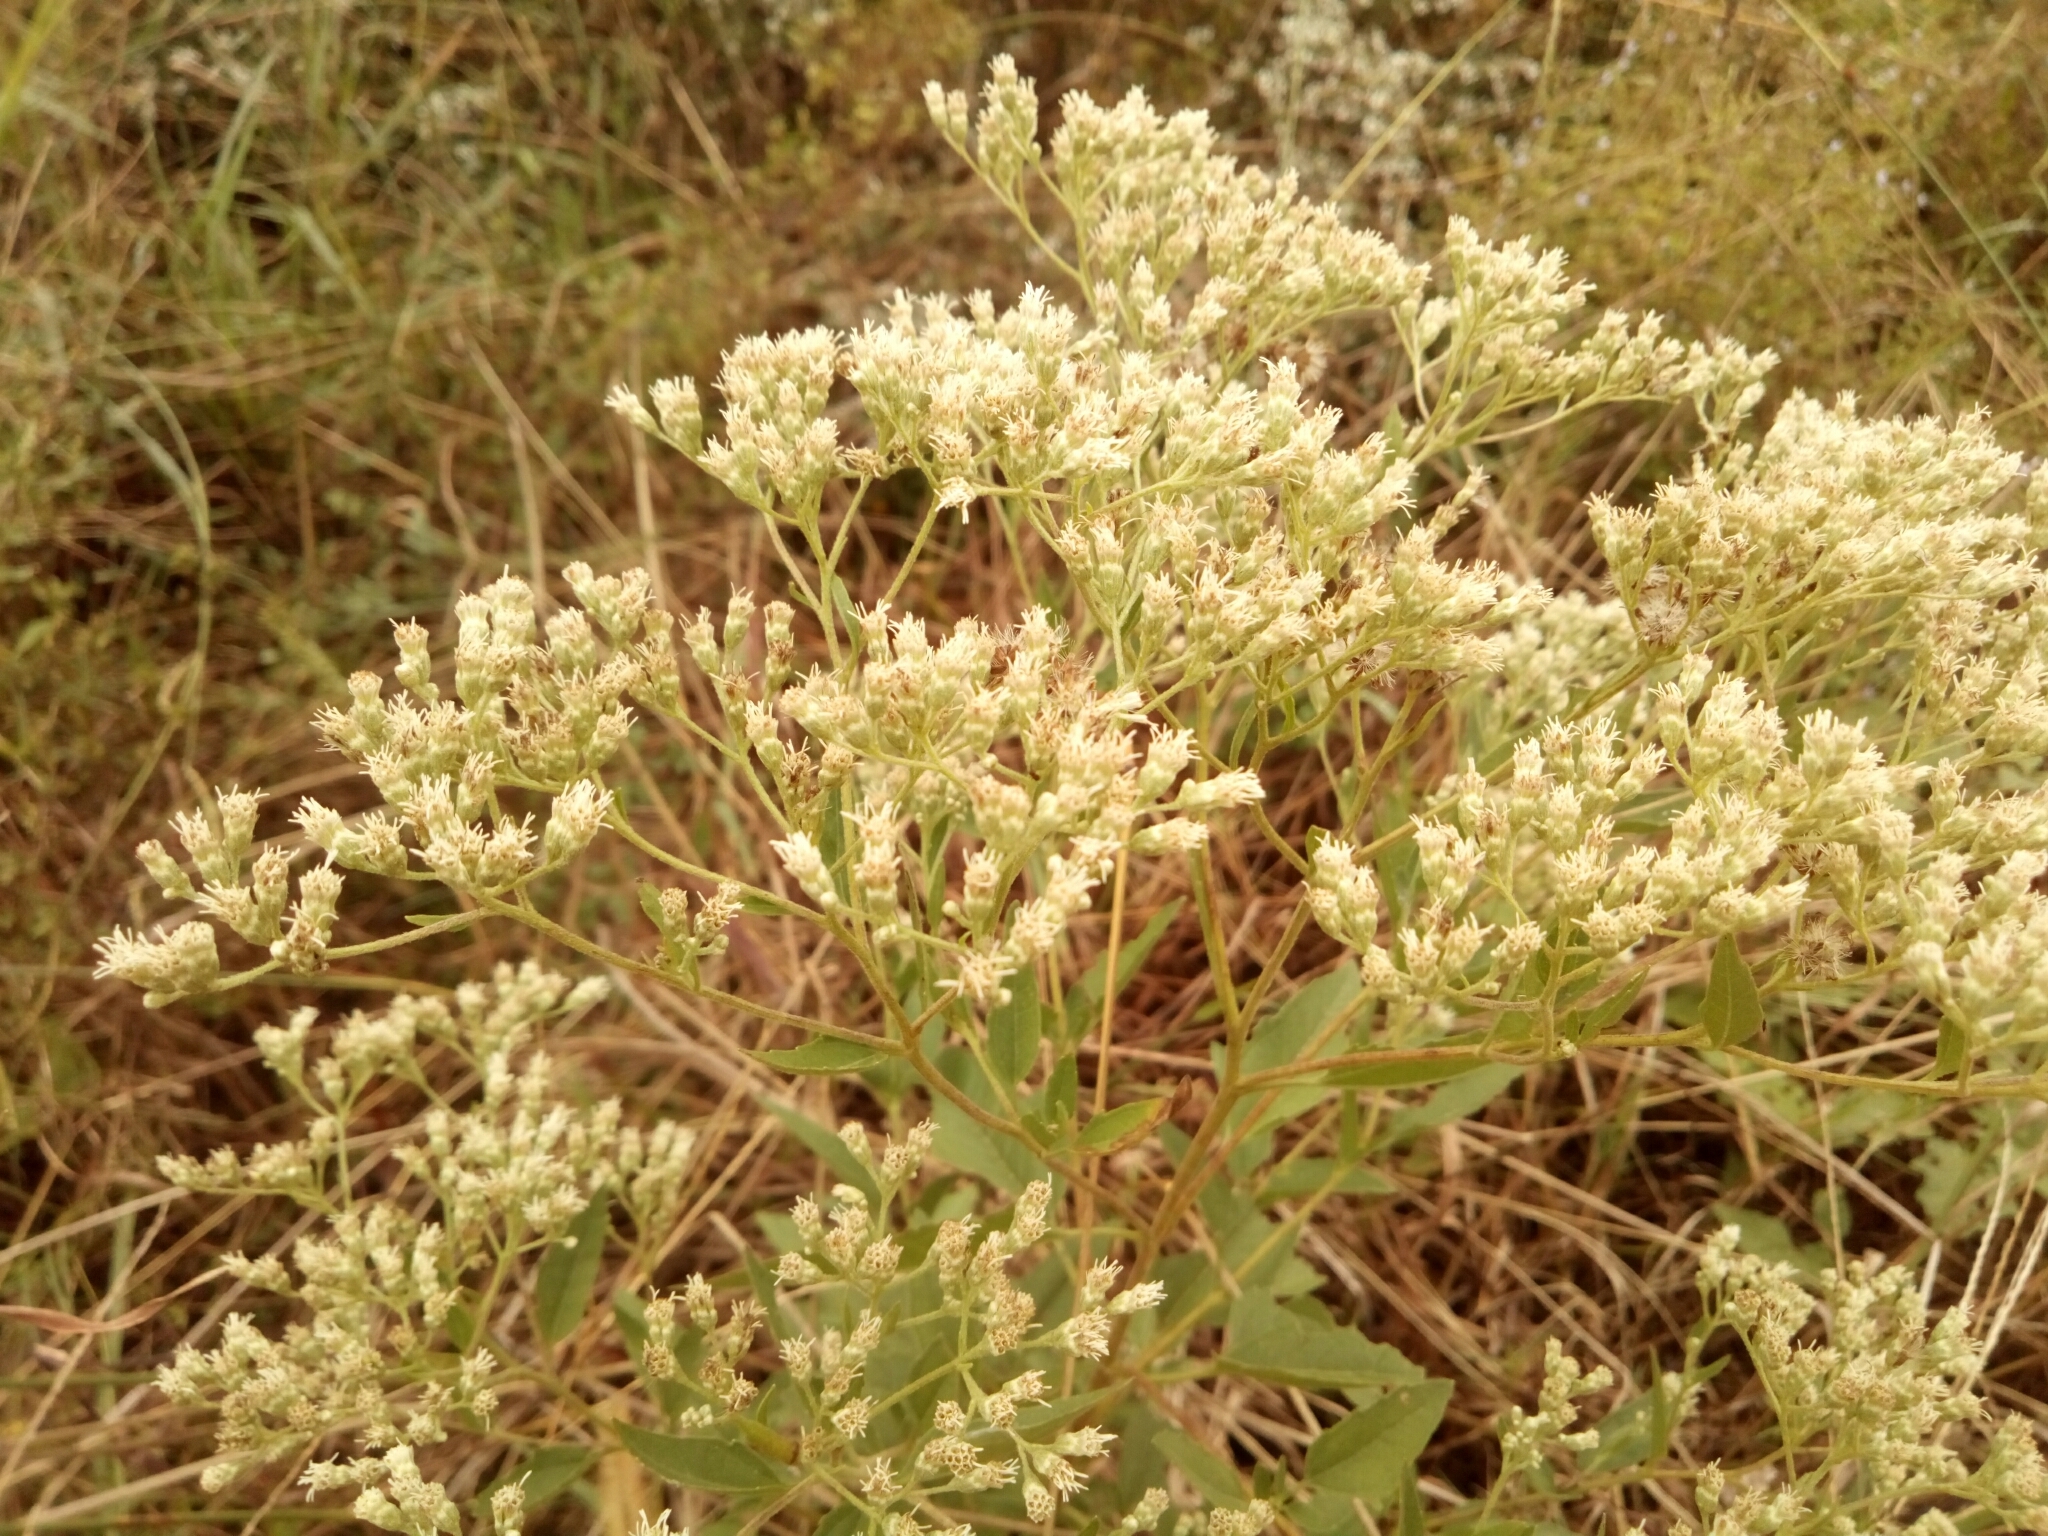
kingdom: Plantae
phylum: Tracheophyta
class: Magnoliopsida
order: Asterales
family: Asteraceae
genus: Eupatorium
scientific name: Eupatorium serotinum
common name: Late boneset
